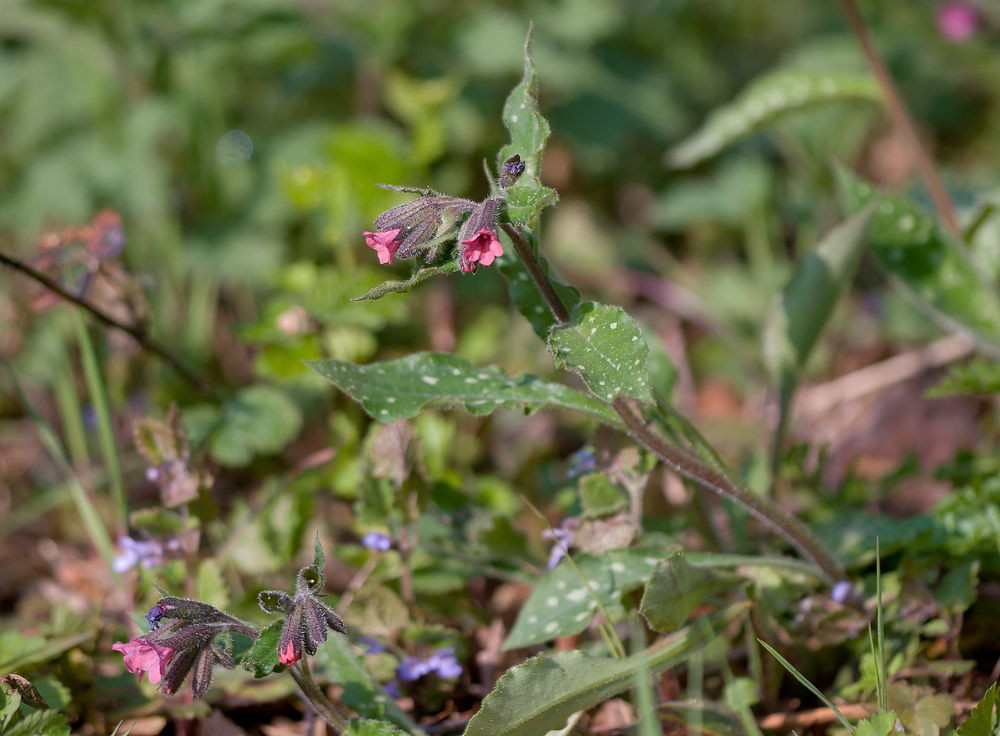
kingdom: Plantae
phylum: Tracheophyta
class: Magnoliopsida
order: Boraginales
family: Boraginaceae
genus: Pulmonaria
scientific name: Pulmonaria affinis
